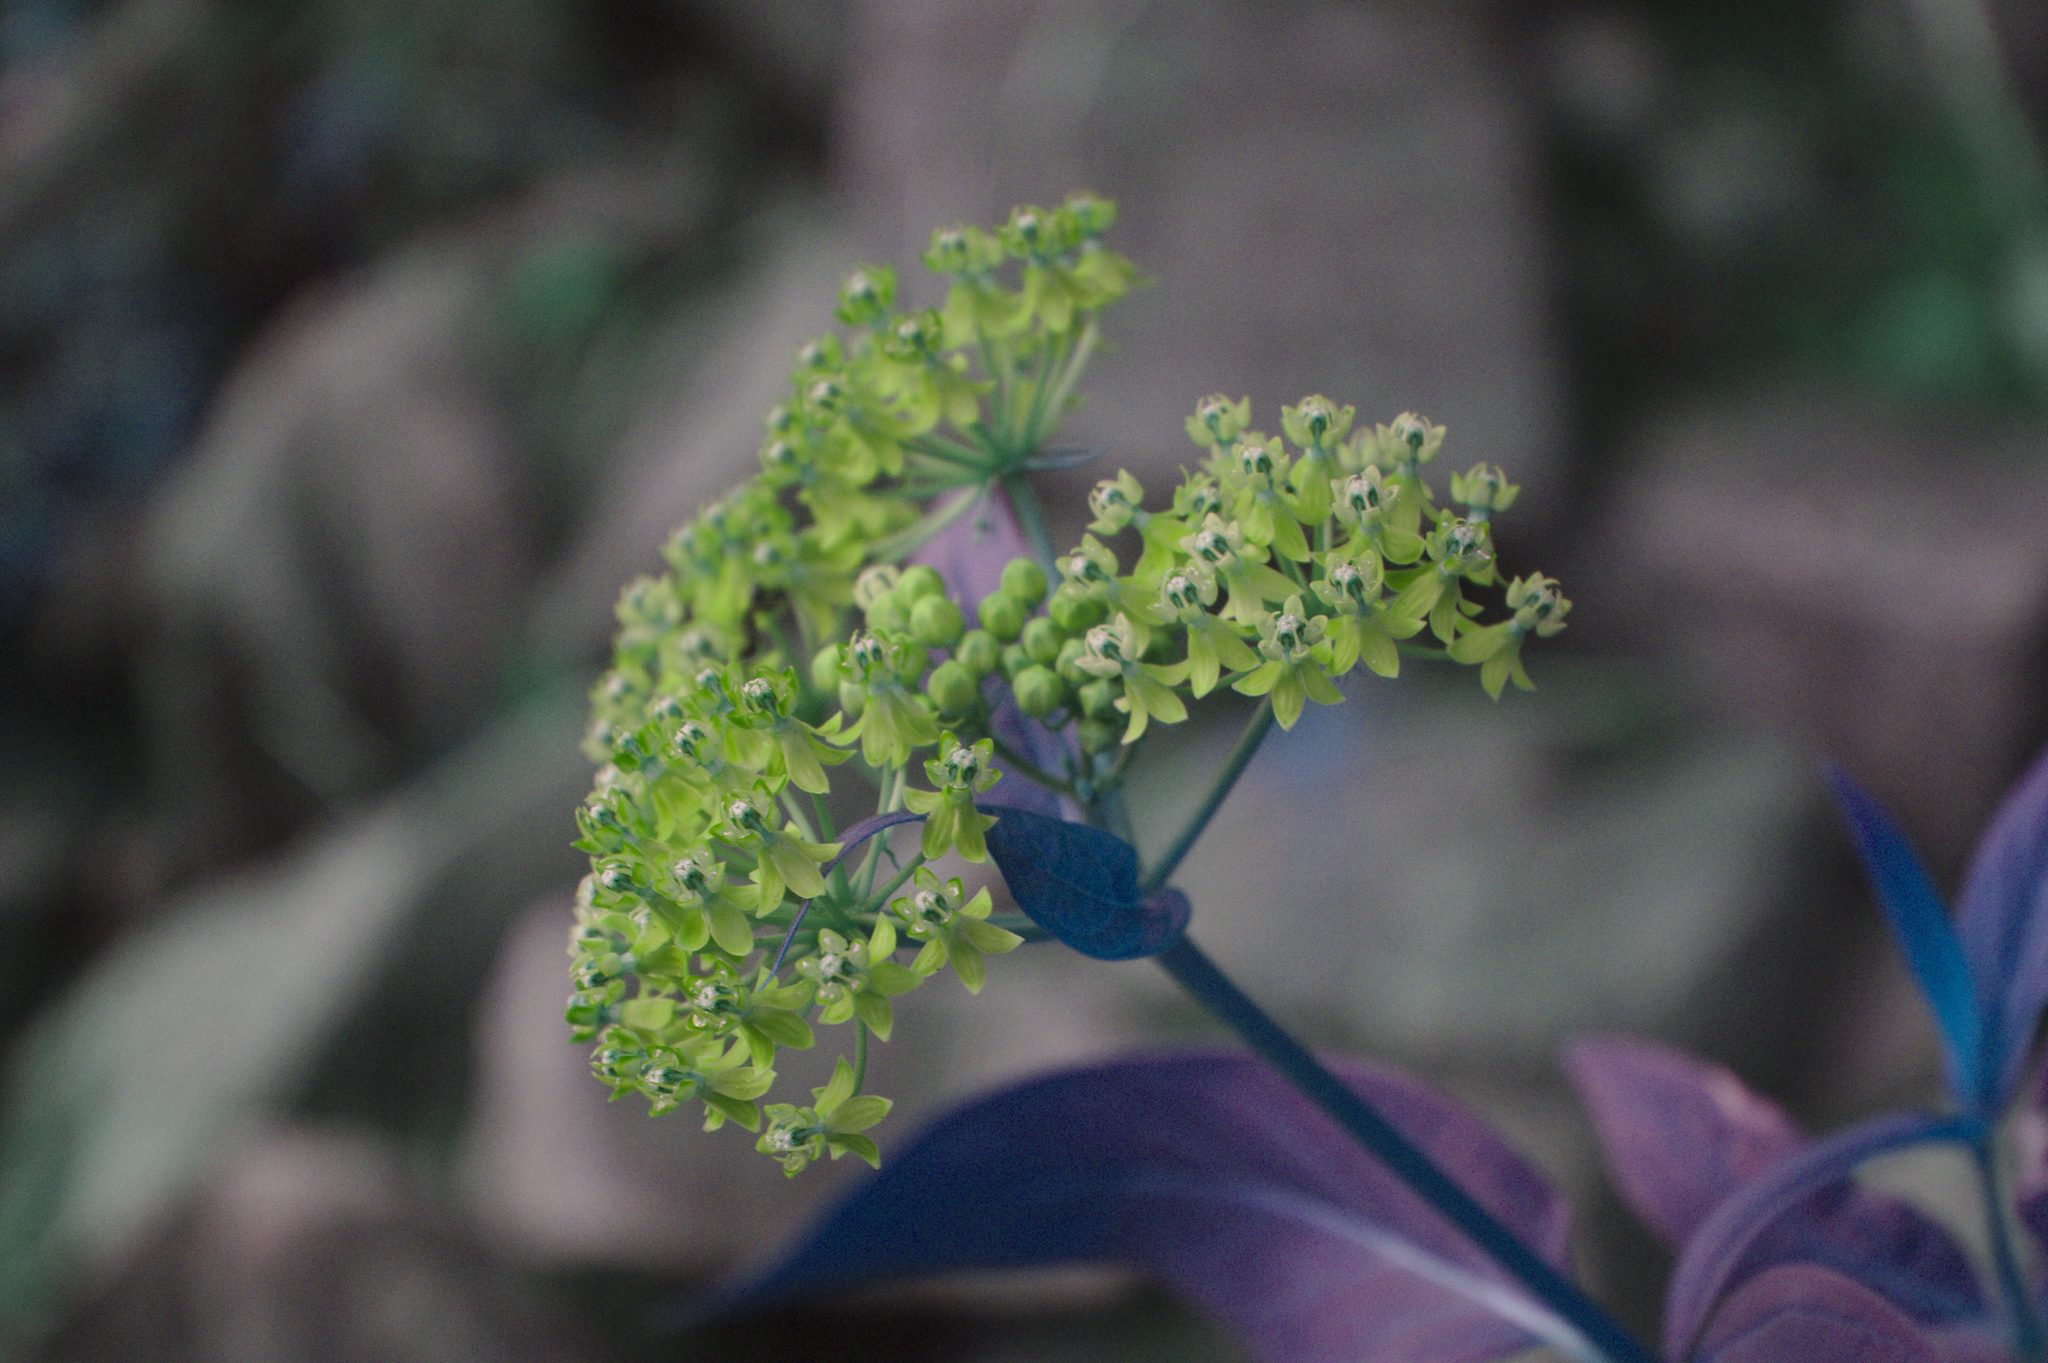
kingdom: Plantae
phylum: Tracheophyta
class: Magnoliopsida
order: Gentianales
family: Apocynaceae
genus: Asclepias
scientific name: Asclepias incarnata
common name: Swamp milkweed
